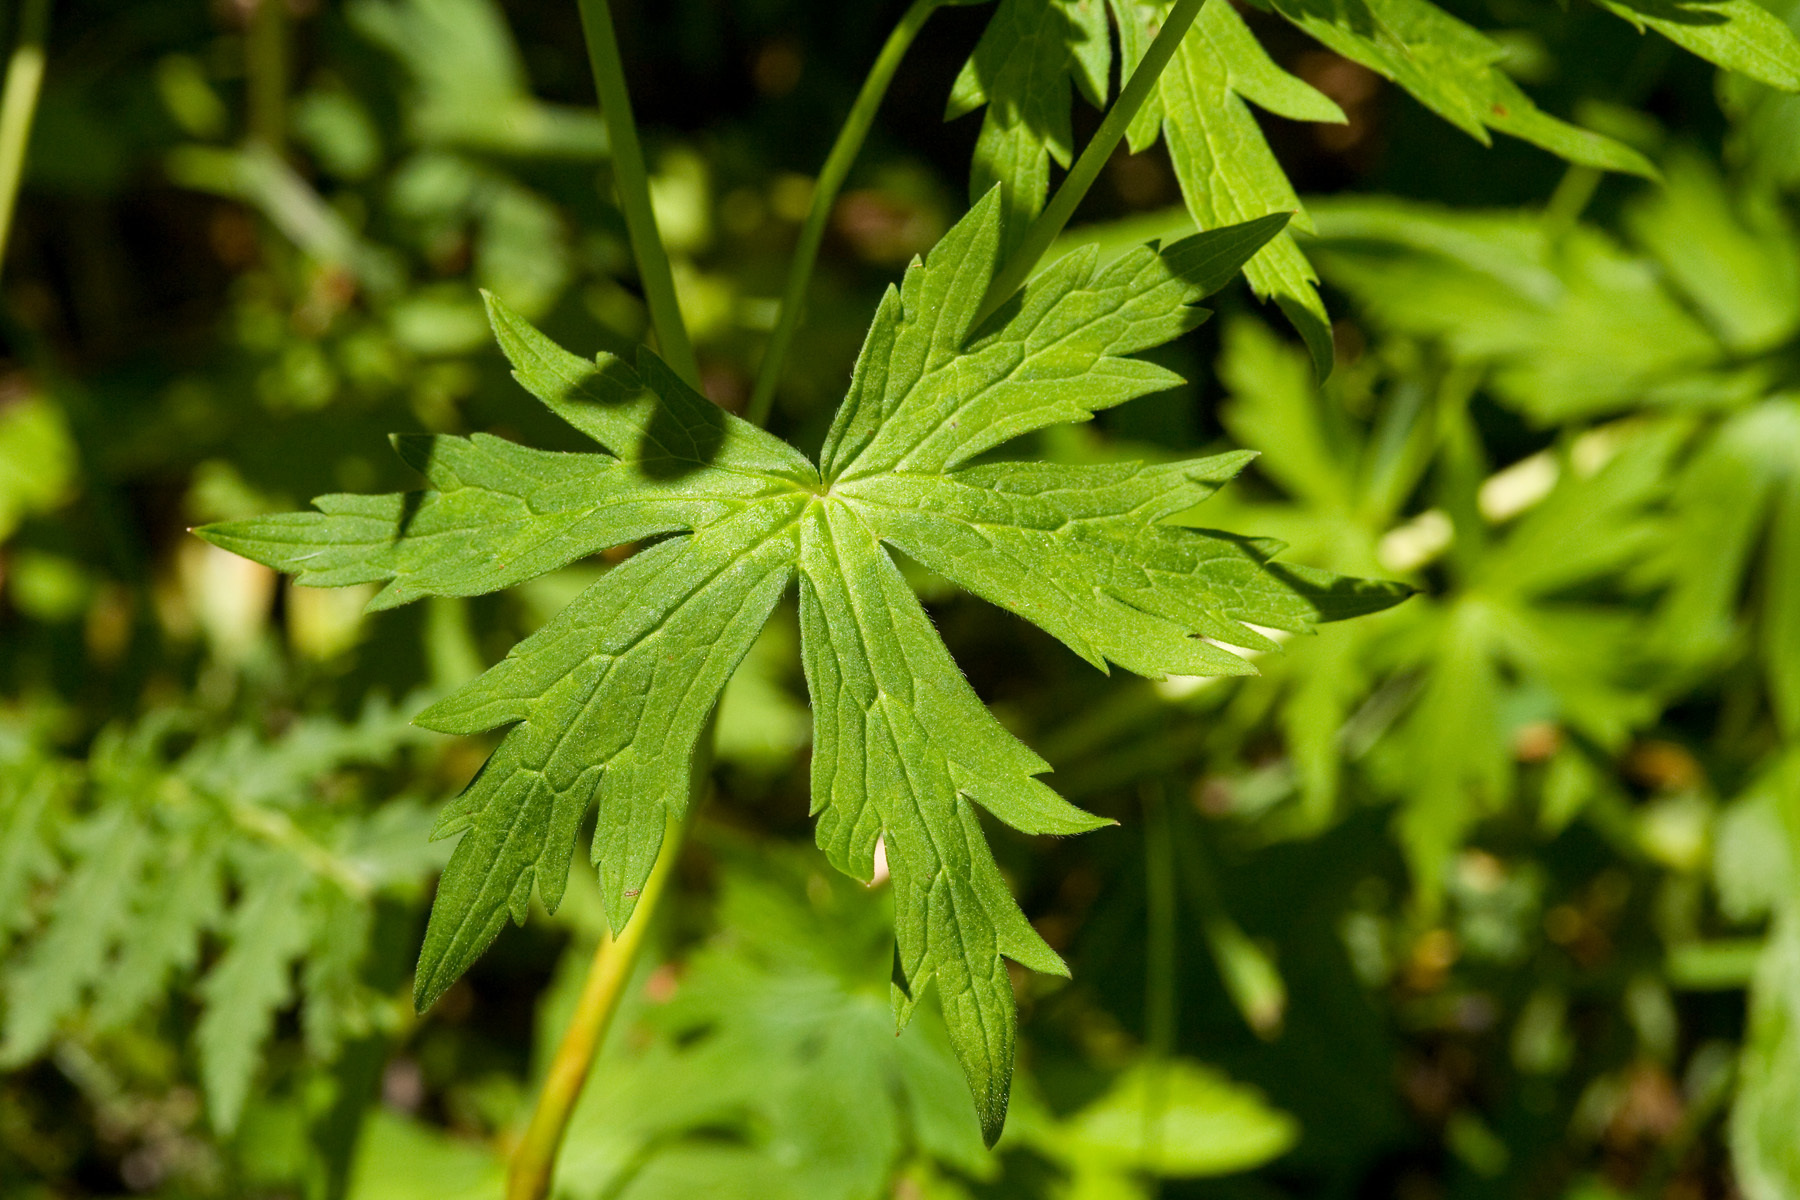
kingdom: Plantae
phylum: Tracheophyta
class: Magnoliopsida
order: Geraniales
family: Geraniaceae
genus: Geranium
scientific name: Geranium richardsonii
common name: Richardson's crane's-bill
